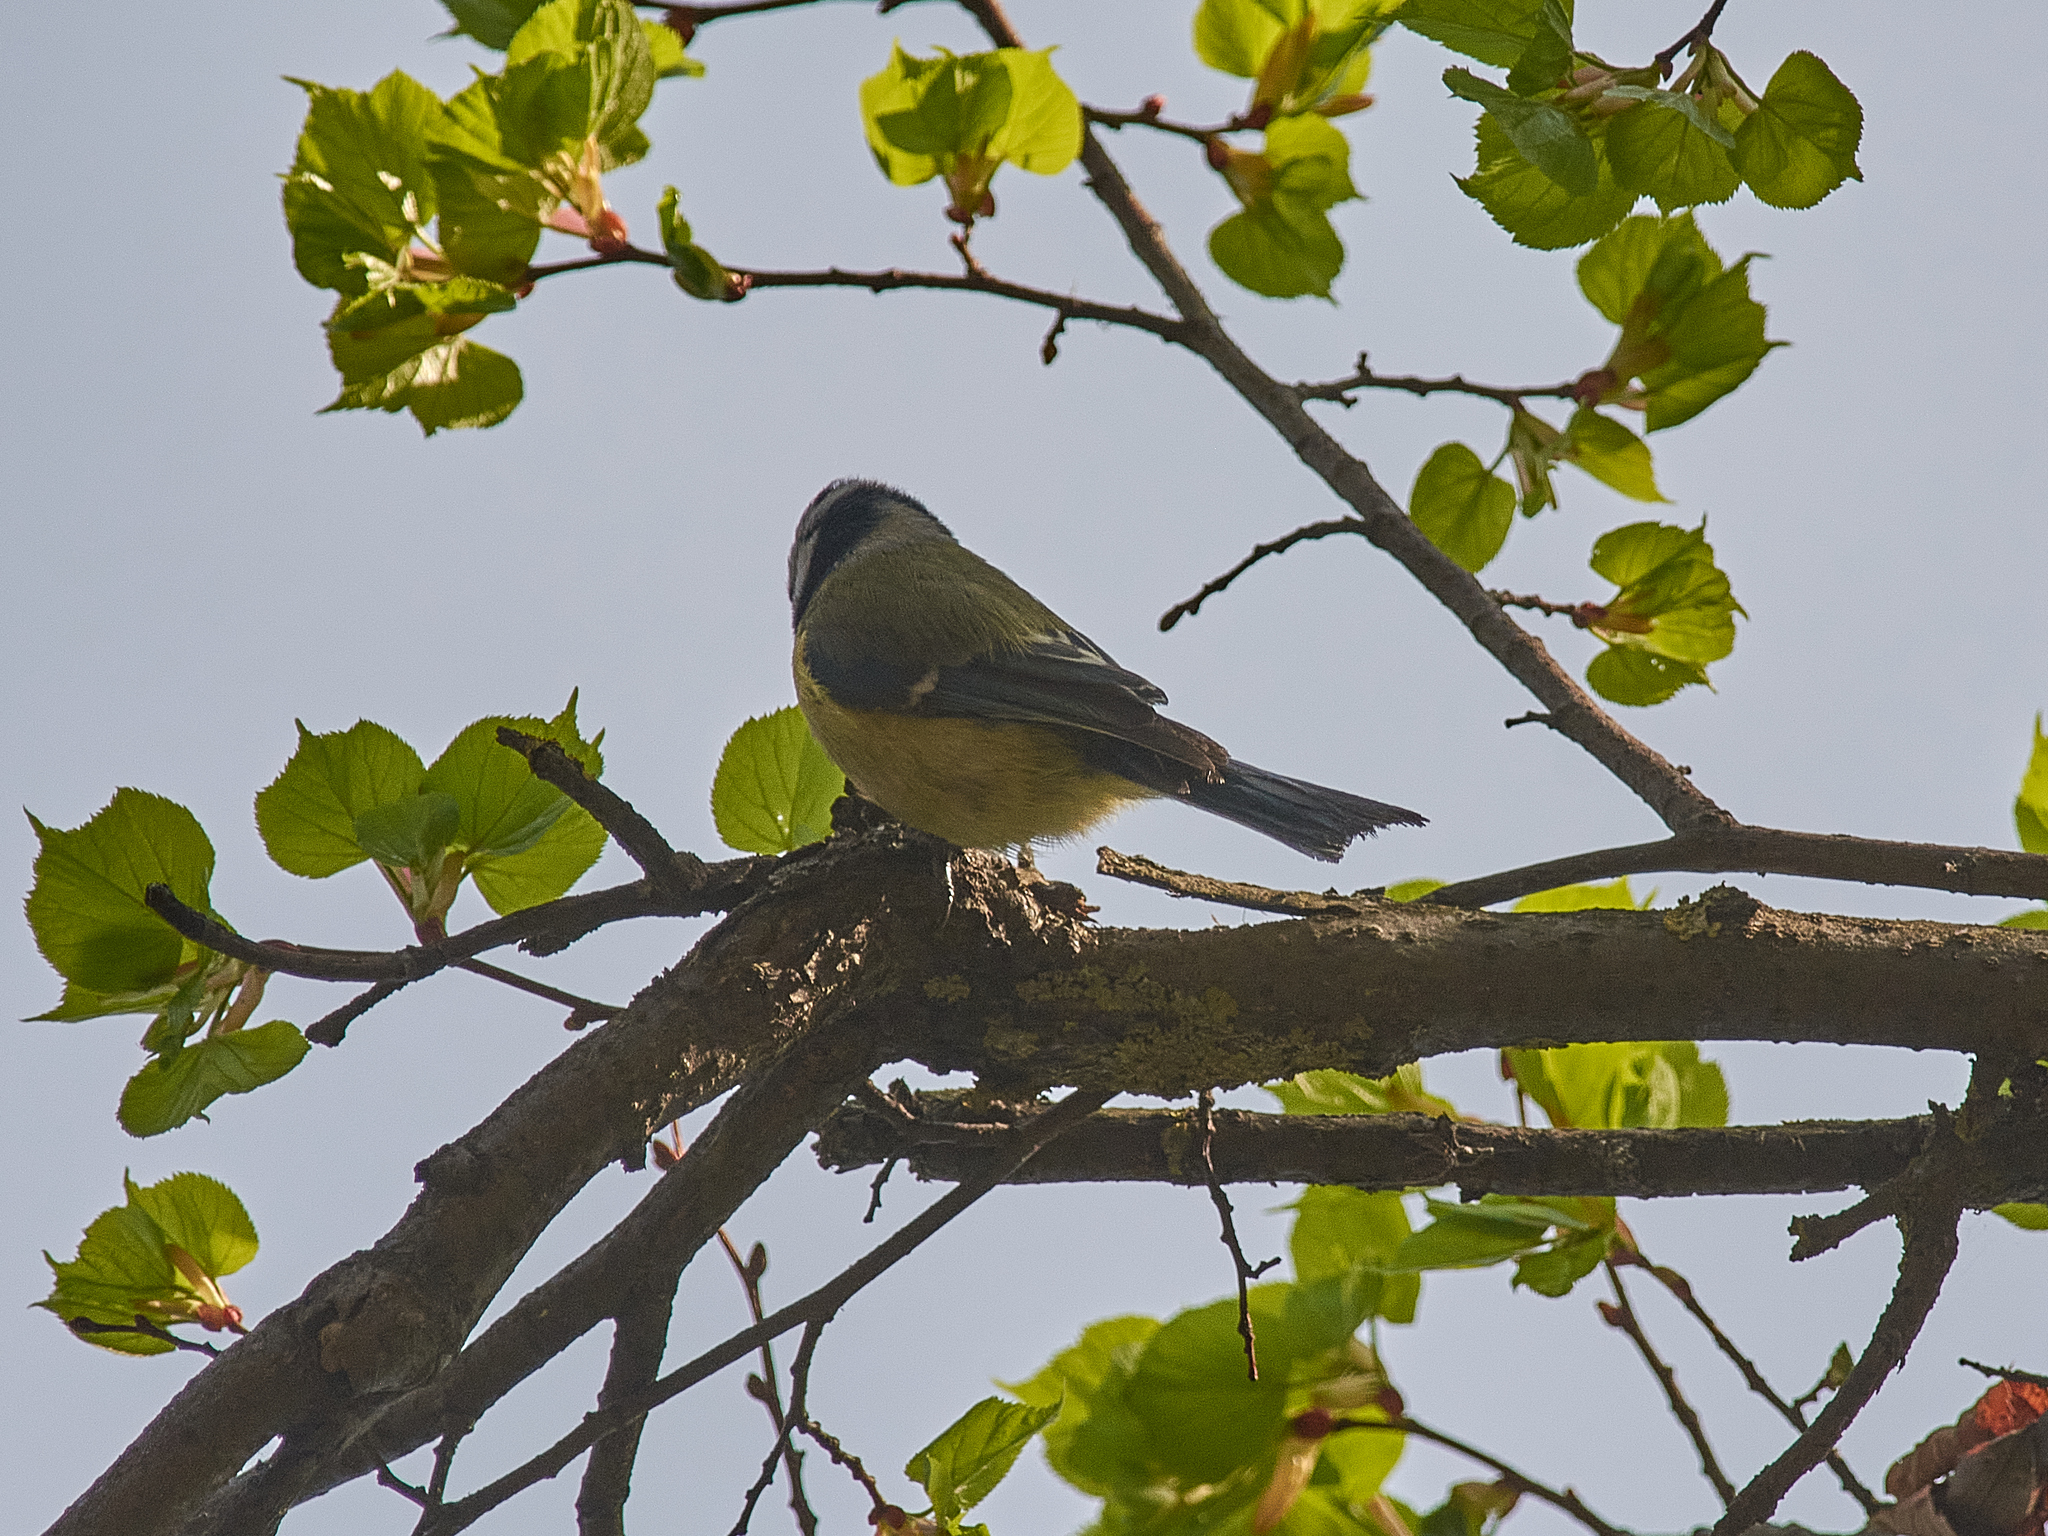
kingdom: Animalia
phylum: Chordata
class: Aves
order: Passeriformes
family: Paridae
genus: Cyanistes
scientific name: Cyanistes caeruleus
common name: Eurasian blue tit
